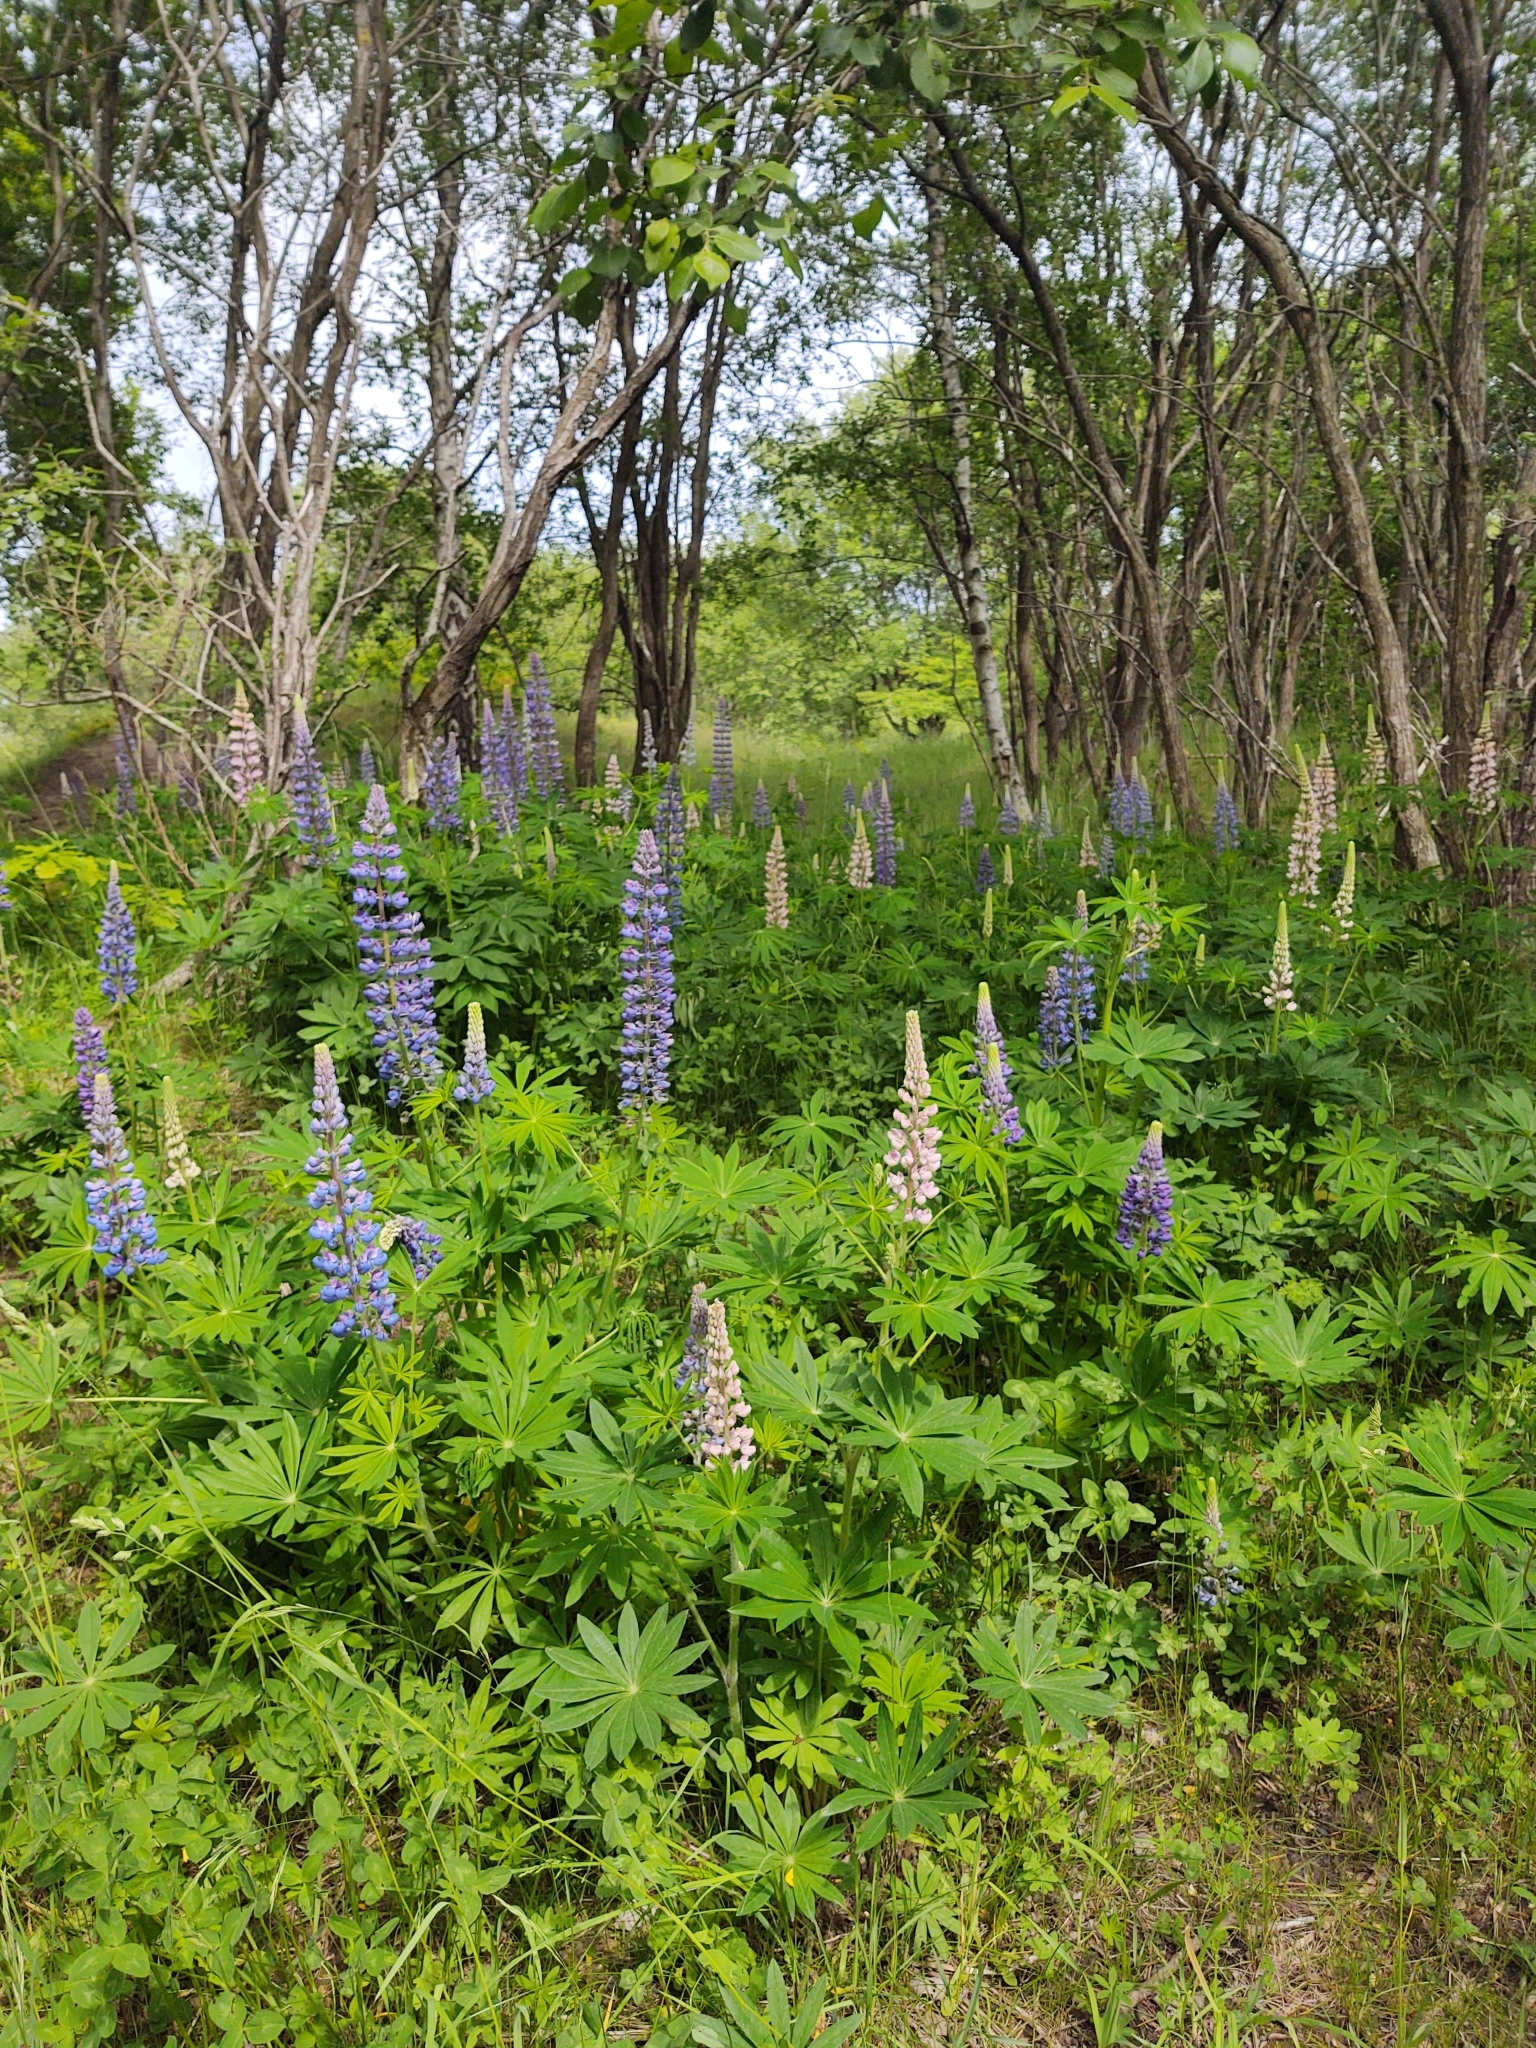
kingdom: Plantae
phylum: Tracheophyta
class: Magnoliopsida
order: Fabales
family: Fabaceae
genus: Lupinus
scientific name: Lupinus polyphyllus
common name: Garden lupin
